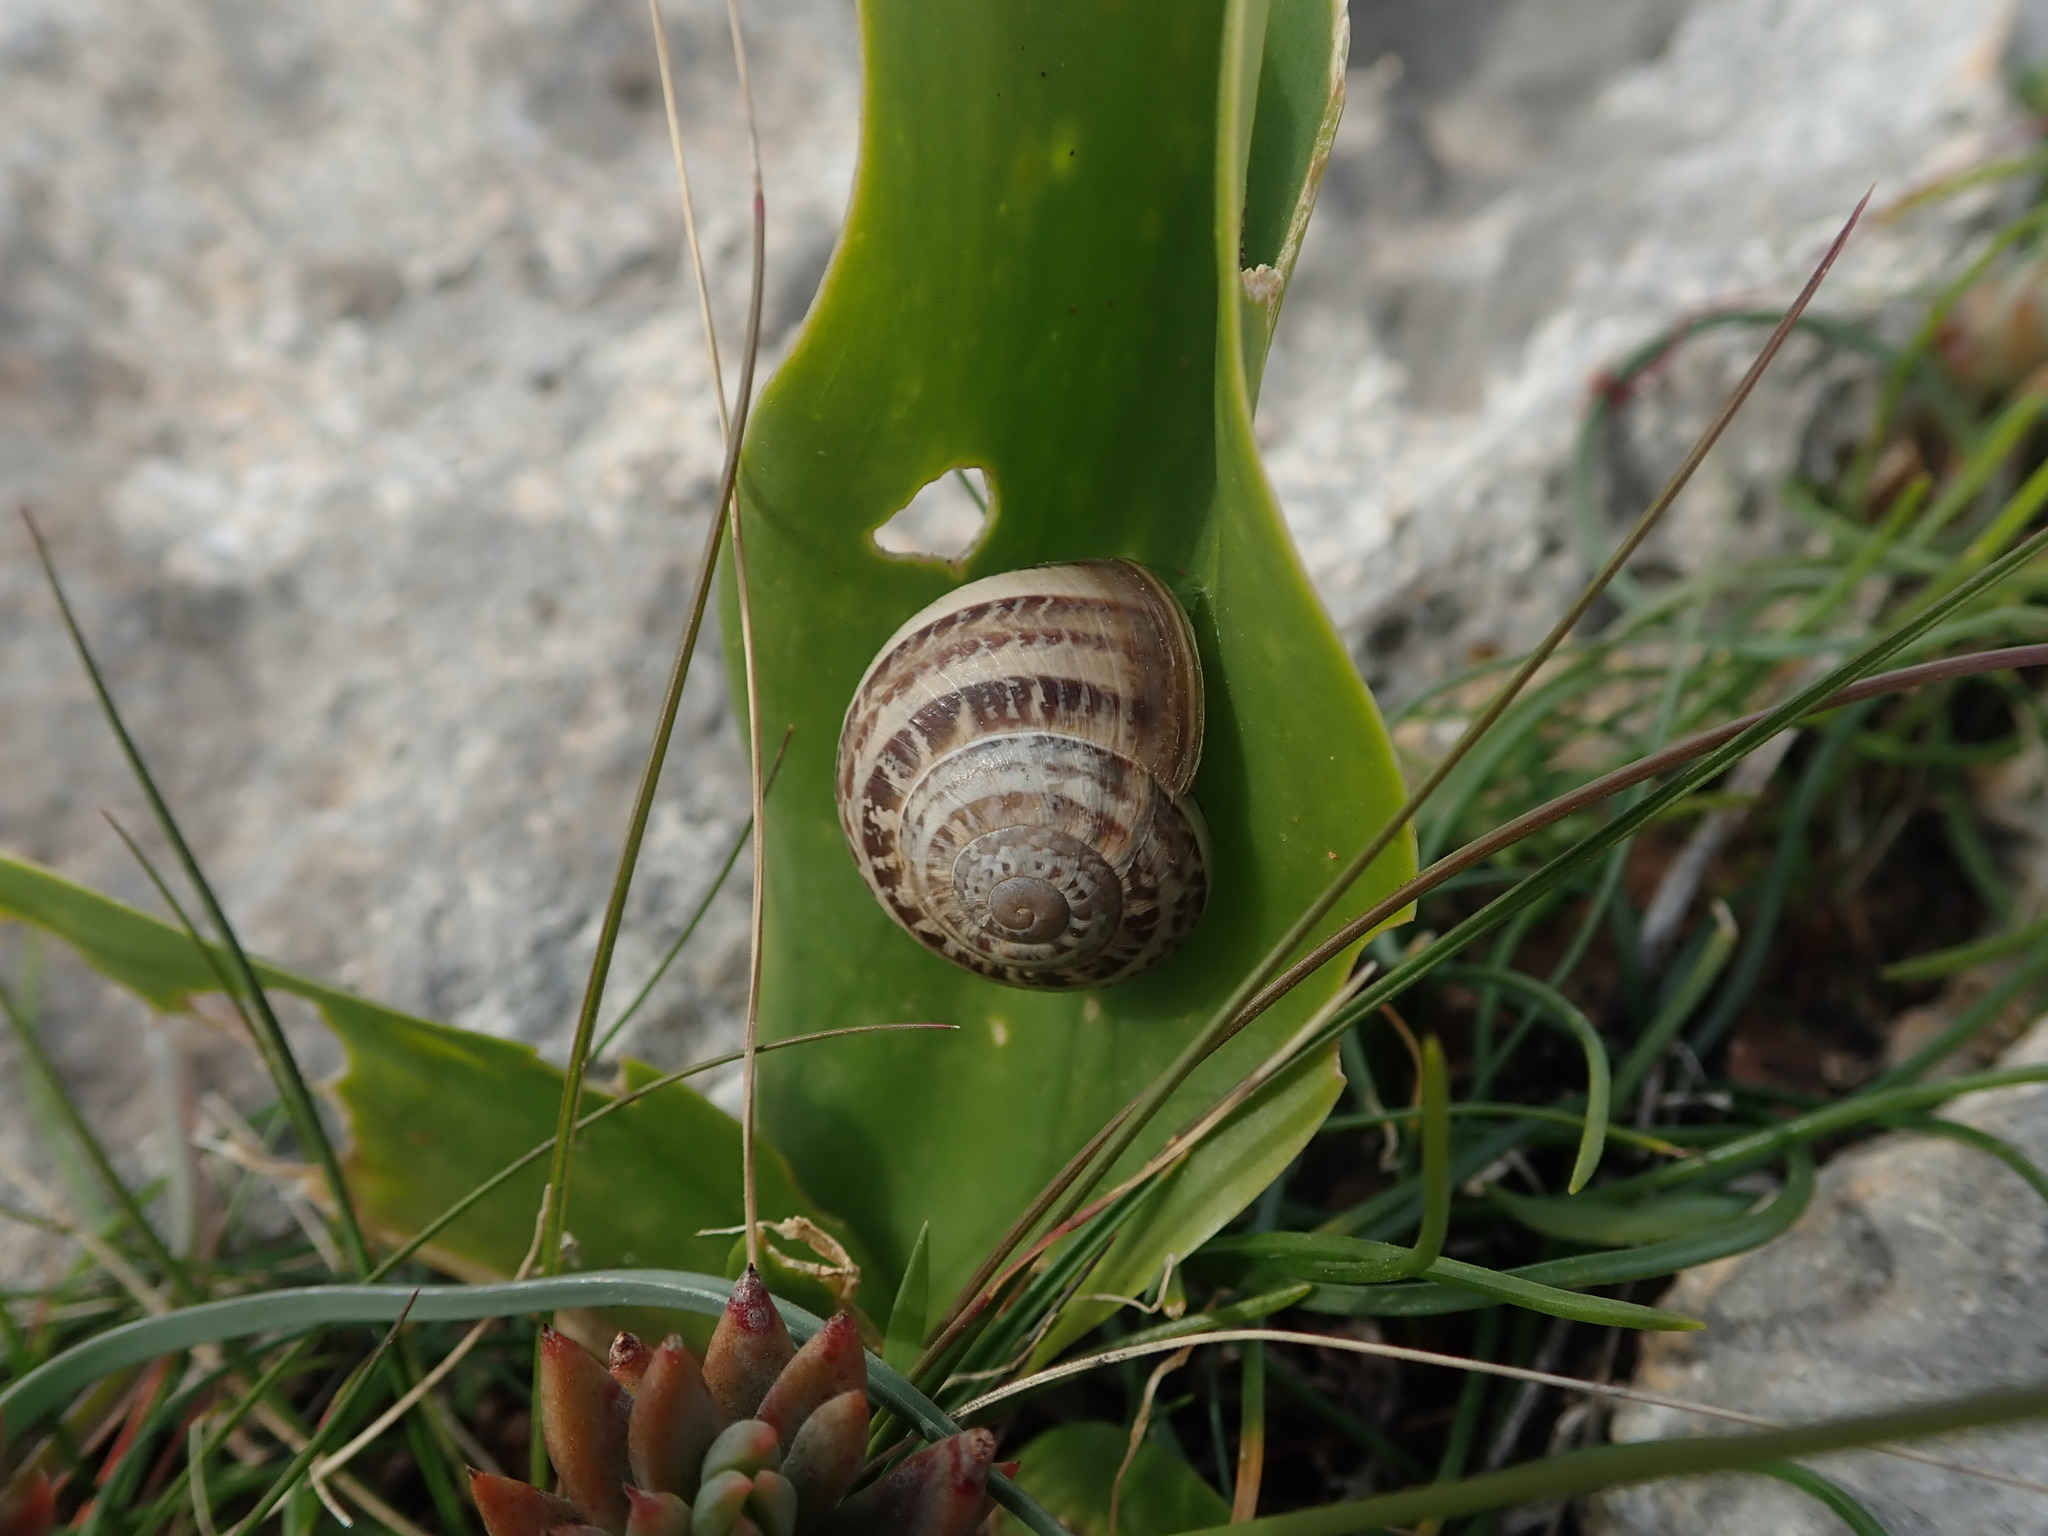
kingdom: Animalia
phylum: Mollusca
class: Gastropoda
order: Stylommatophora
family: Helicidae
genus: Eobania
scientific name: Eobania vermiculata
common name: Chocolateband snail
